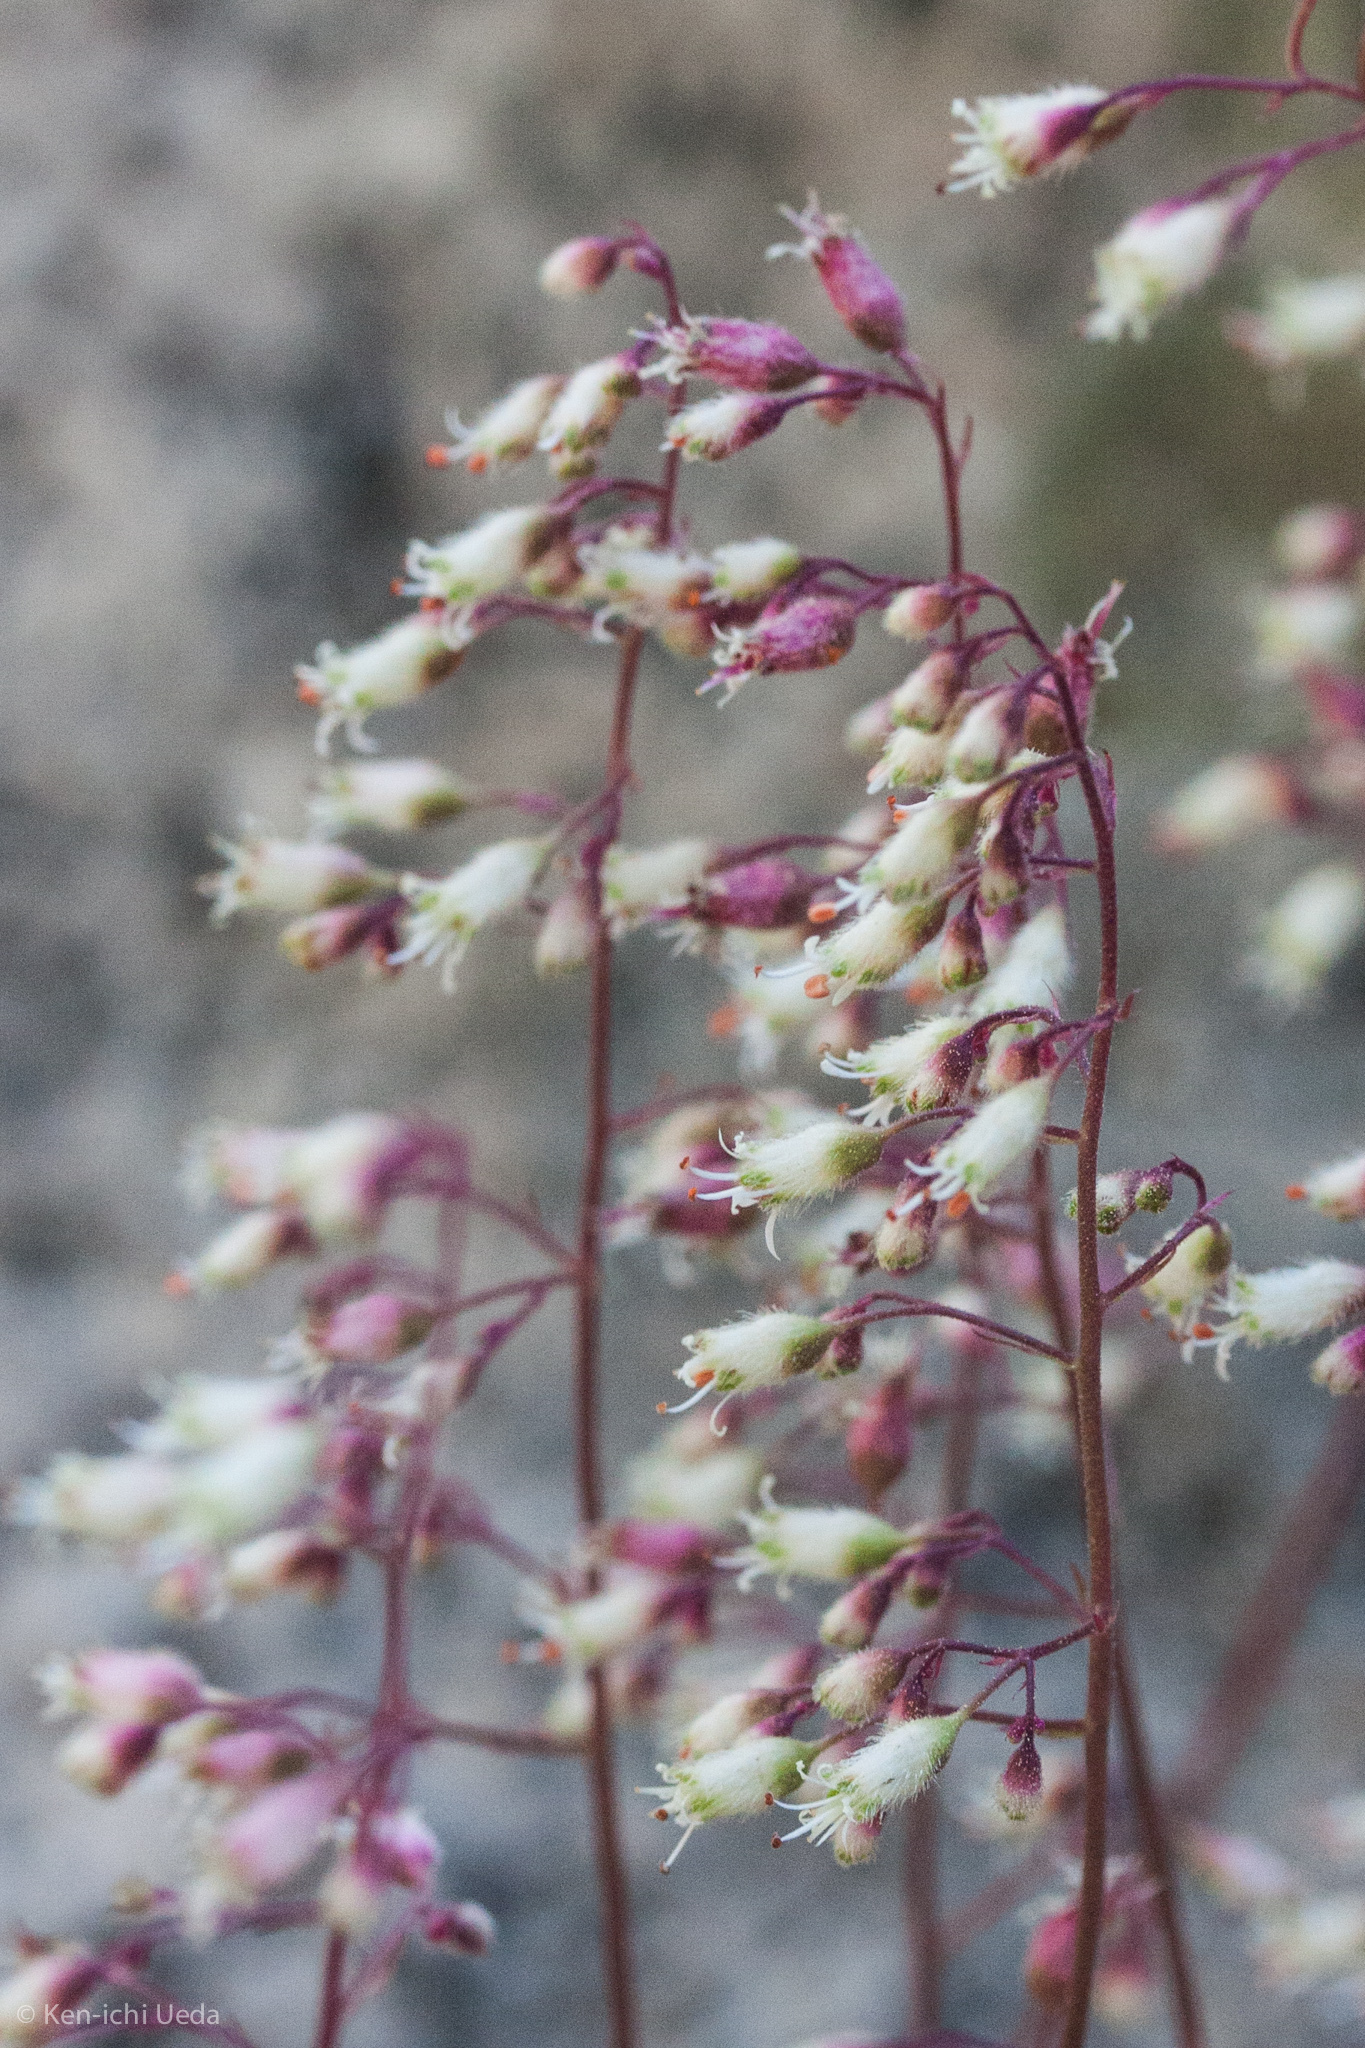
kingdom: Plantae
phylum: Tracheophyta
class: Magnoliopsida
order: Saxifragales
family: Saxifragaceae
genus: Heuchera
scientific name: Heuchera rubescens
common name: Jack-o'the-rocks
